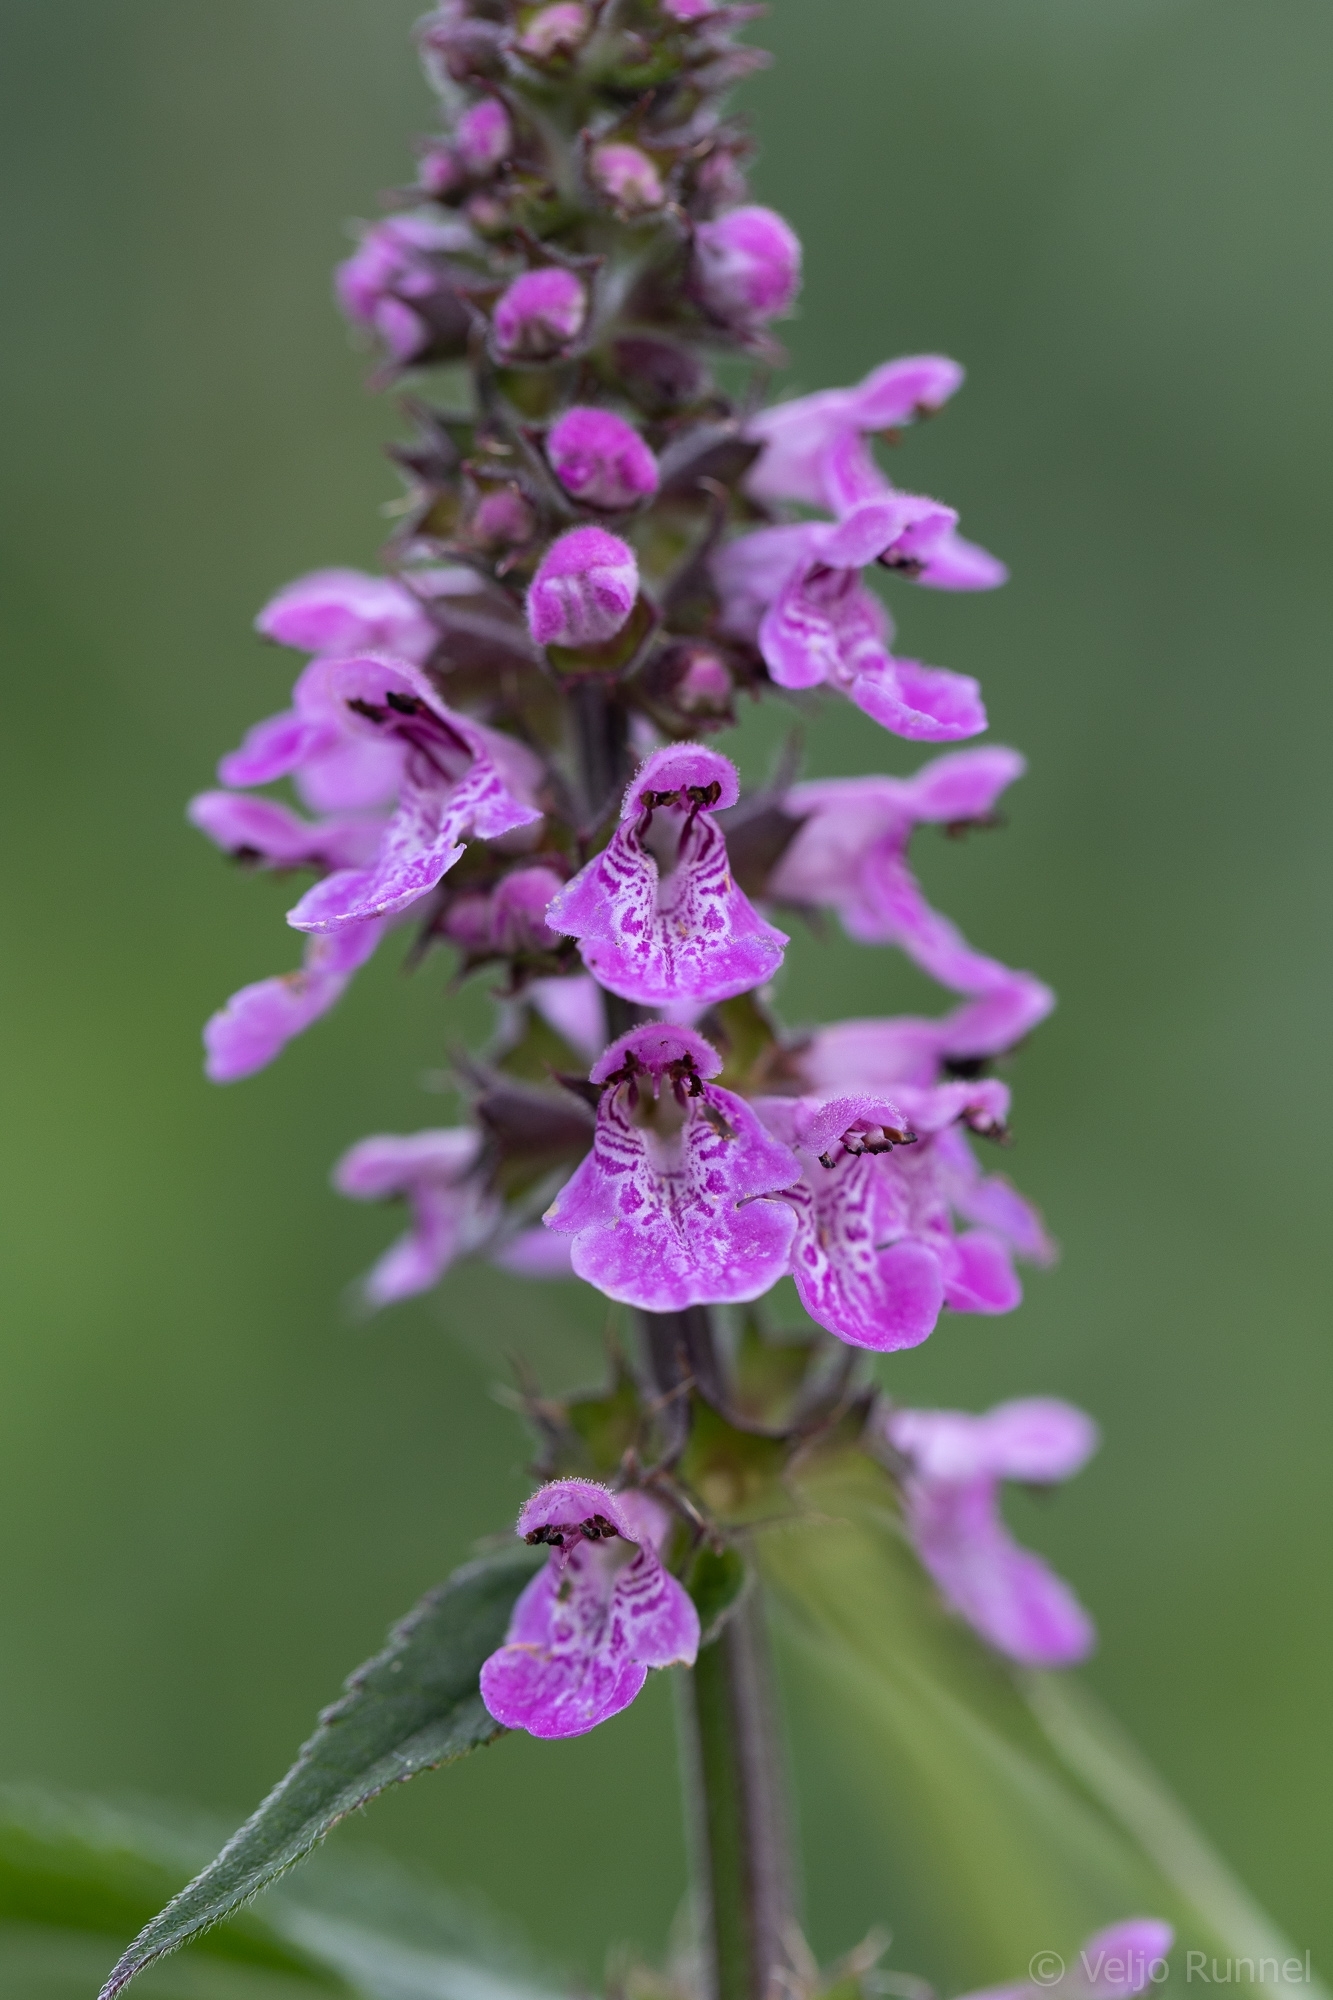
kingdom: Plantae
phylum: Tracheophyta
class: Magnoliopsida
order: Lamiales
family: Lamiaceae
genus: Stachys
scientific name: Stachys palustris
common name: Marsh woundwort
